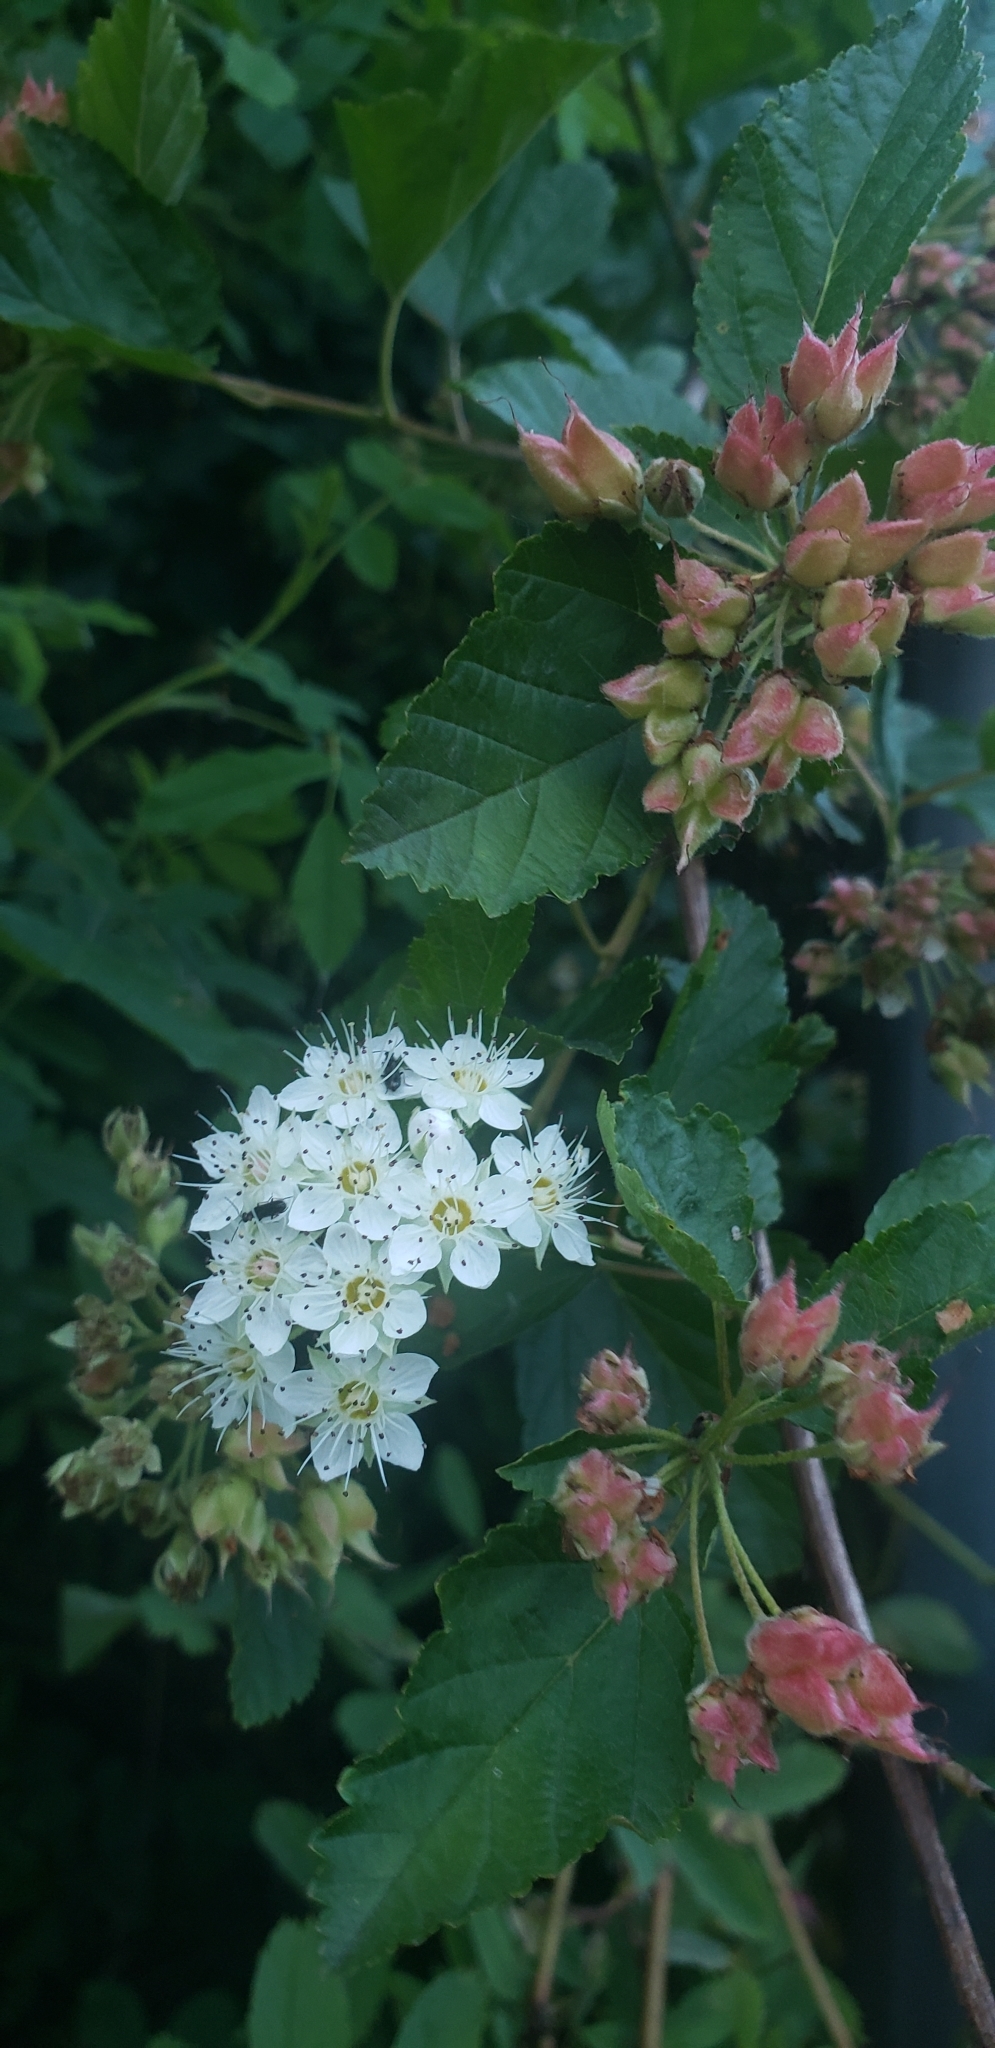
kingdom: Plantae
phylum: Tracheophyta
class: Magnoliopsida
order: Rosales
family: Rosaceae
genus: Physocarpus
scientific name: Physocarpus capitatus
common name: Pacific ninebark
